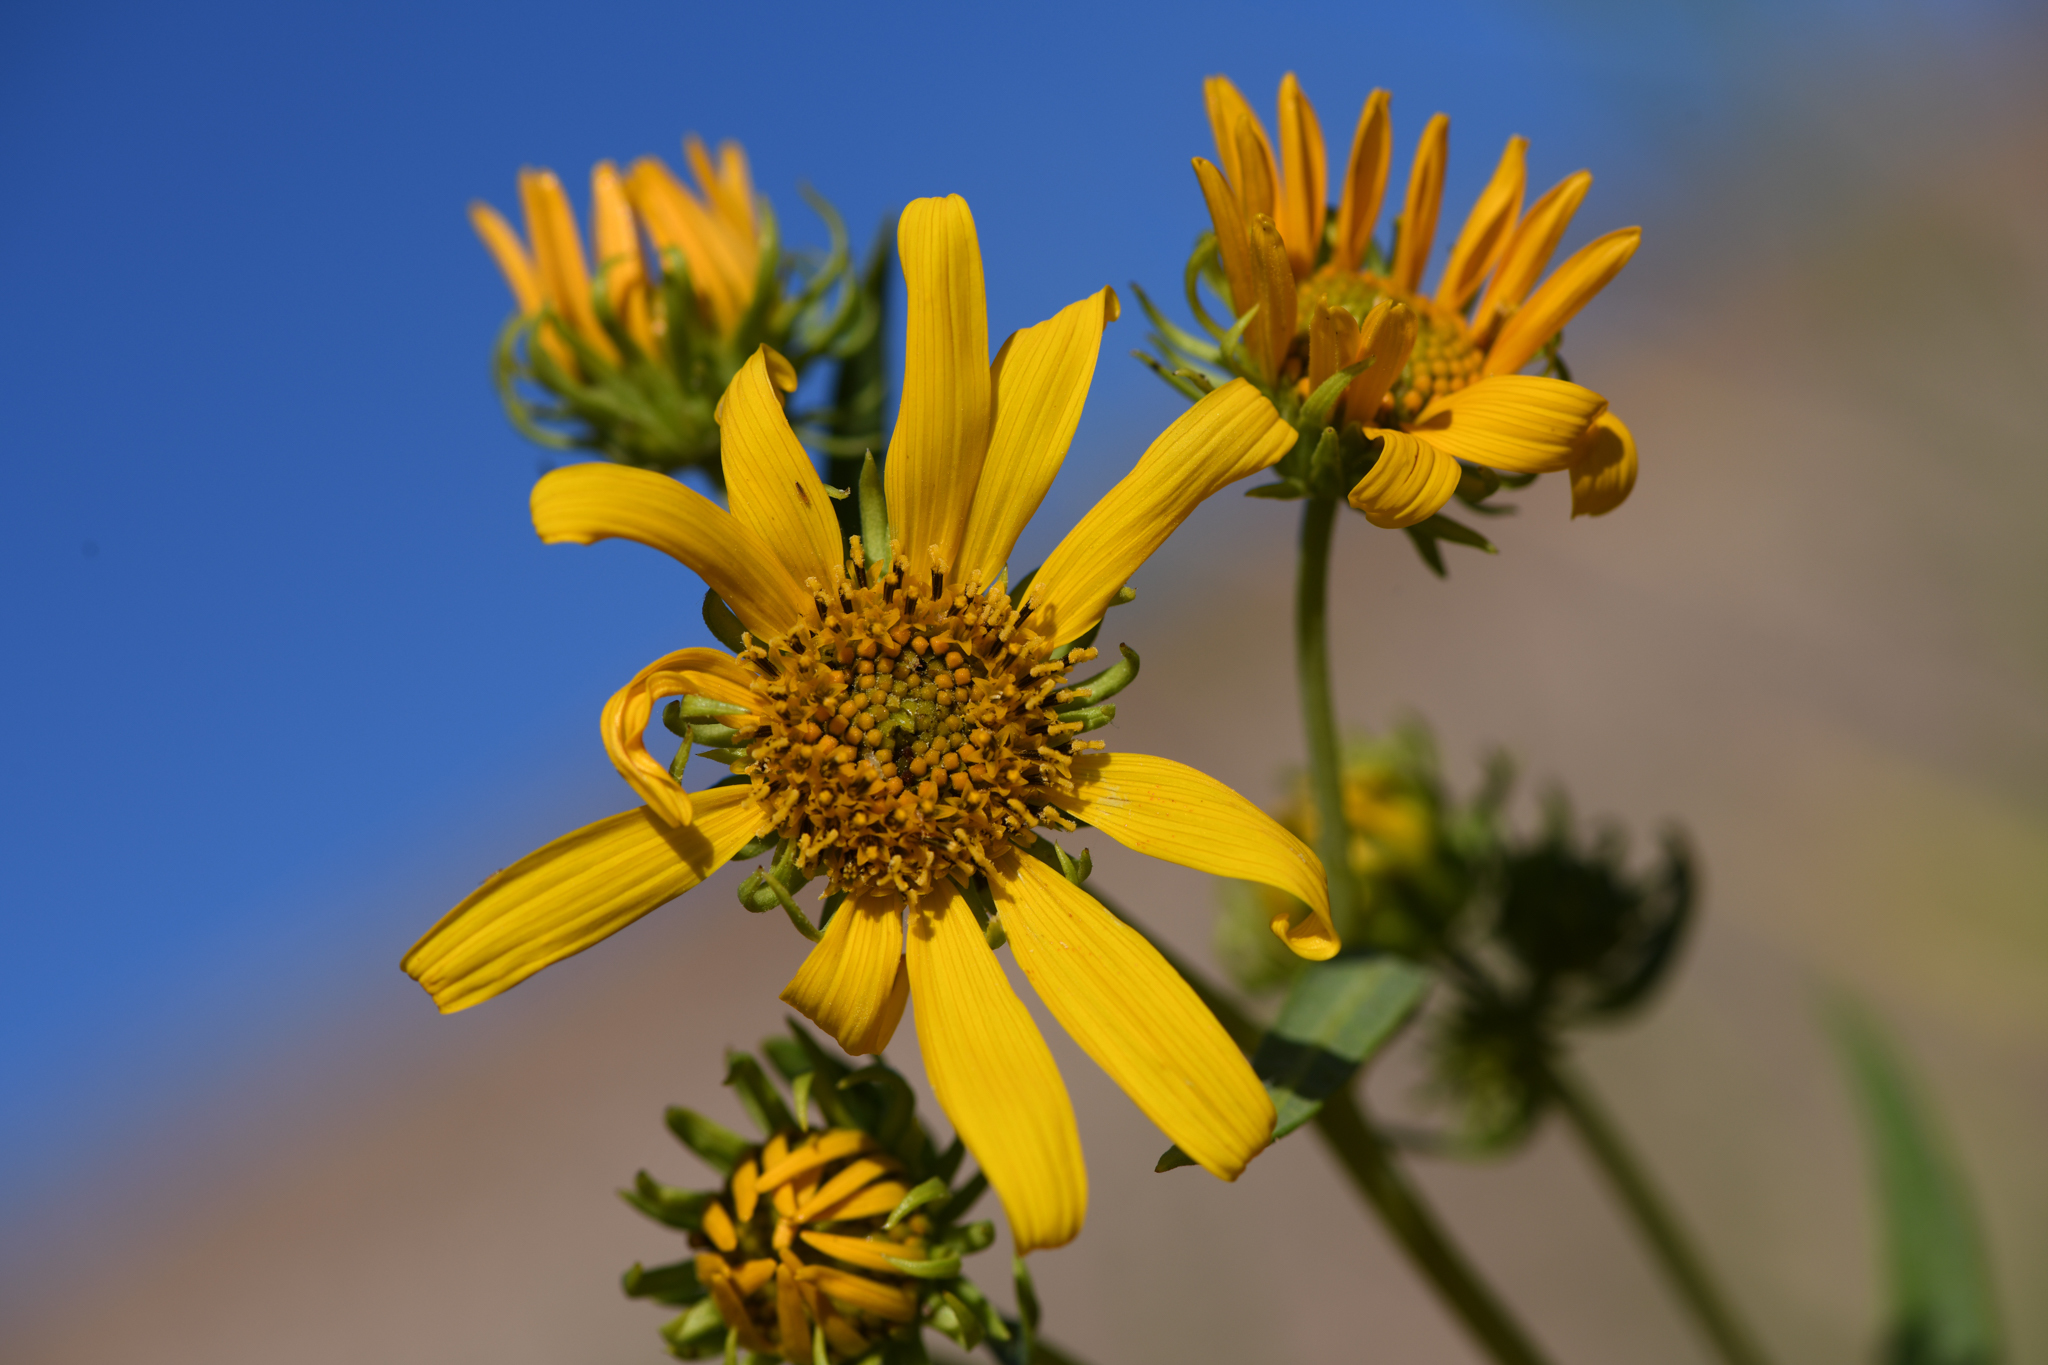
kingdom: Plantae
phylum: Tracheophyta
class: Magnoliopsida
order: Asterales
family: Asteraceae
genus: Helianthus
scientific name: Helianthus nuttallii
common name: Nuttall's sunflower
